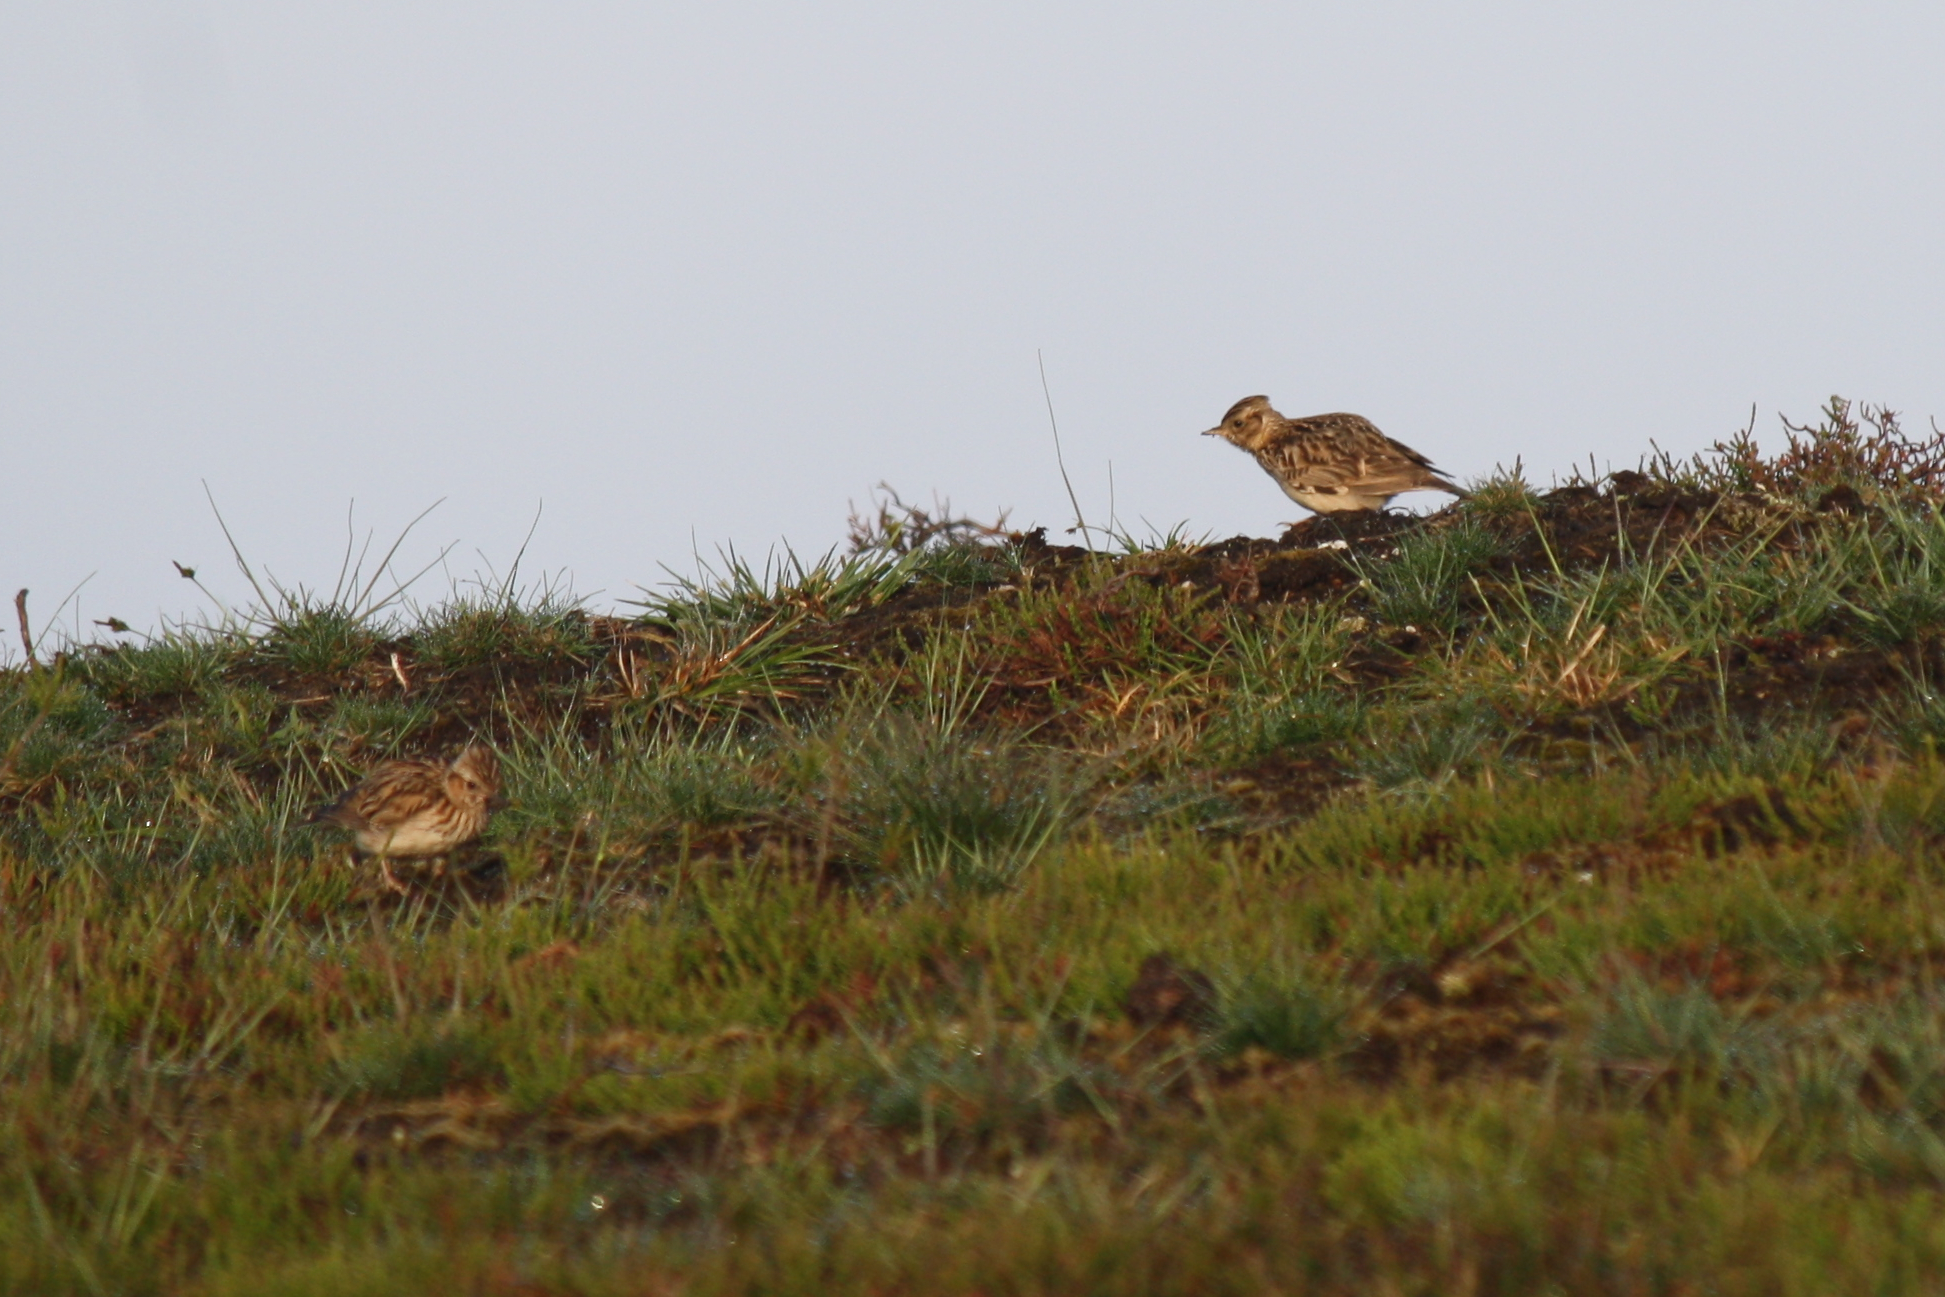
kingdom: Animalia
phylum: Chordata
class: Aves
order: Passeriformes
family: Alaudidae
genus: Alauda
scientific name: Alauda arvensis
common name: Eurasian skylark
